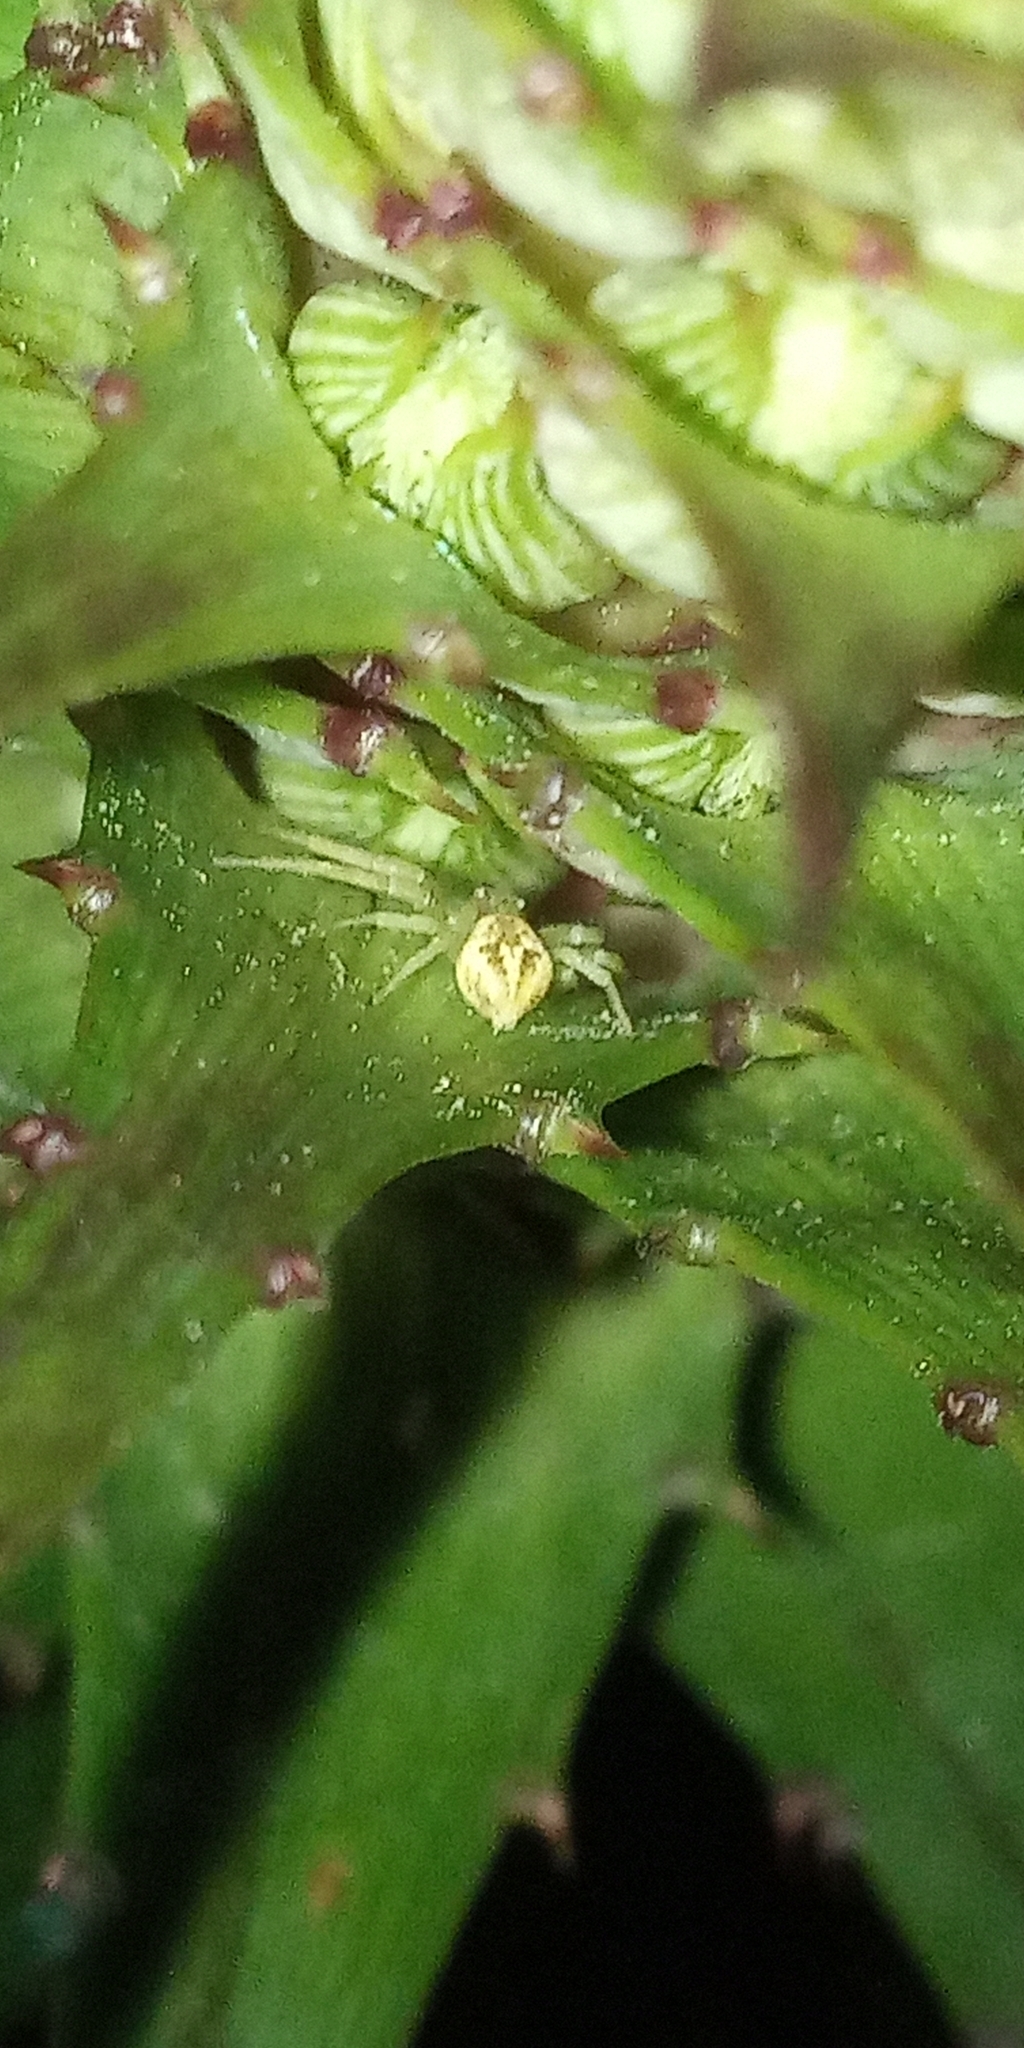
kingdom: Animalia
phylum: Arthropoda
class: Arachnida
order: Araneae
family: Thomisidae
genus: Misumenops
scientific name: Misumenops
